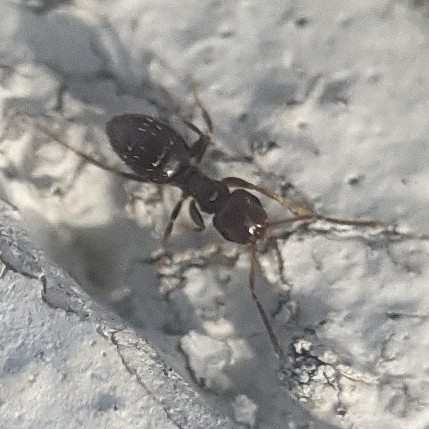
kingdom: Animalia
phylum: Arthropoda
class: Insecta
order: Hymenoptera
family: Formicidae
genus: Brachymyrmex
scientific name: Brachymyrmex patagonicus
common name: Dark rover ant
